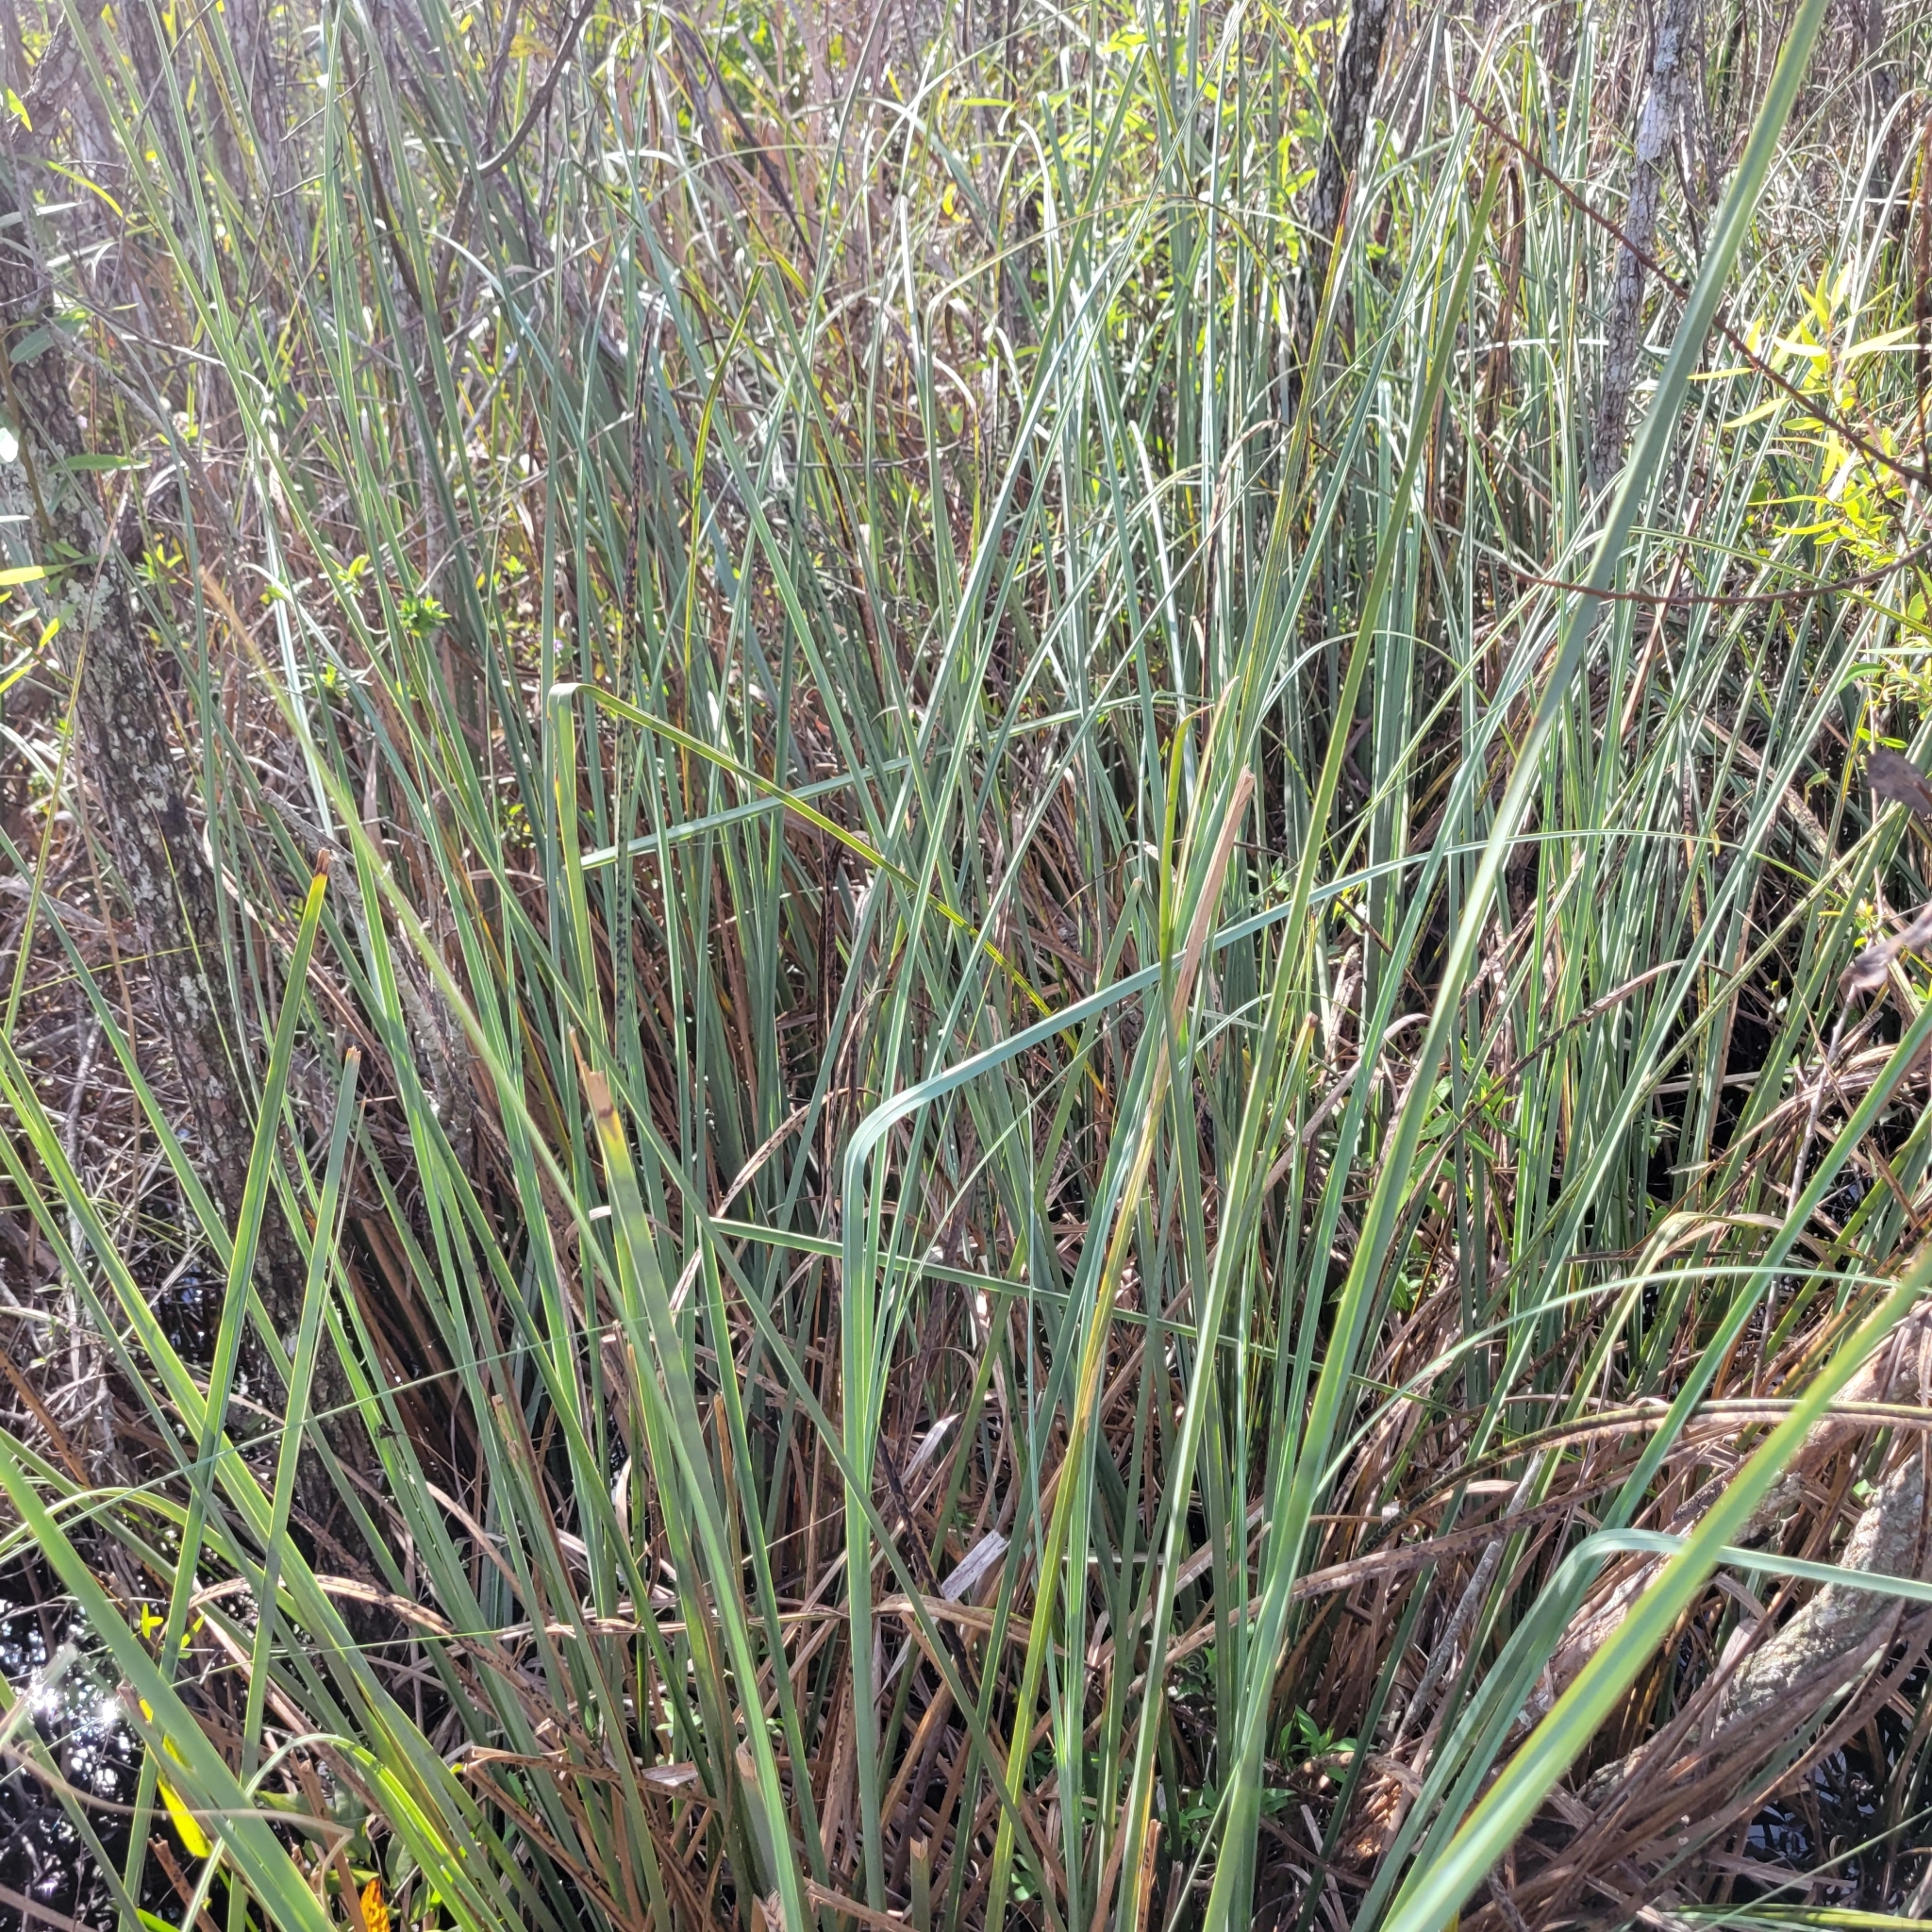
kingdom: Plantae
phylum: Tracheophyta
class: Liliopsida
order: Poales
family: Cyperaceae
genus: Cladium
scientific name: Cladium mariscus
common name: Great fen-sedge
